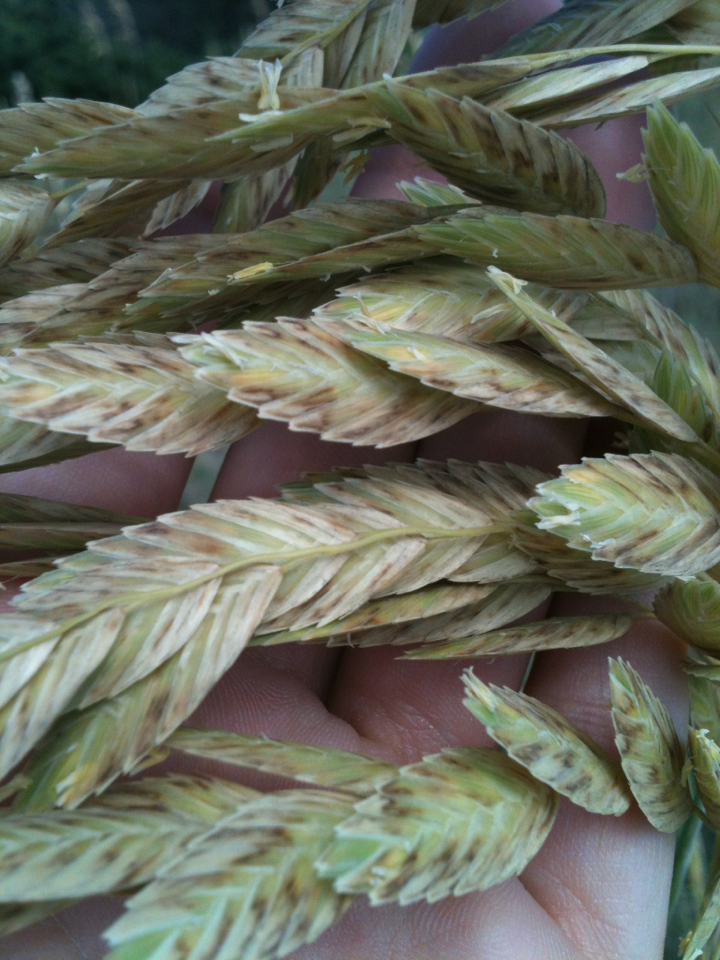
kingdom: Plantae
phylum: Tracheophyta
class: Liliopsida
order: Poales
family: Poaceae
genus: Uniola
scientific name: Uniola paniculata
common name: Seaside-oats
